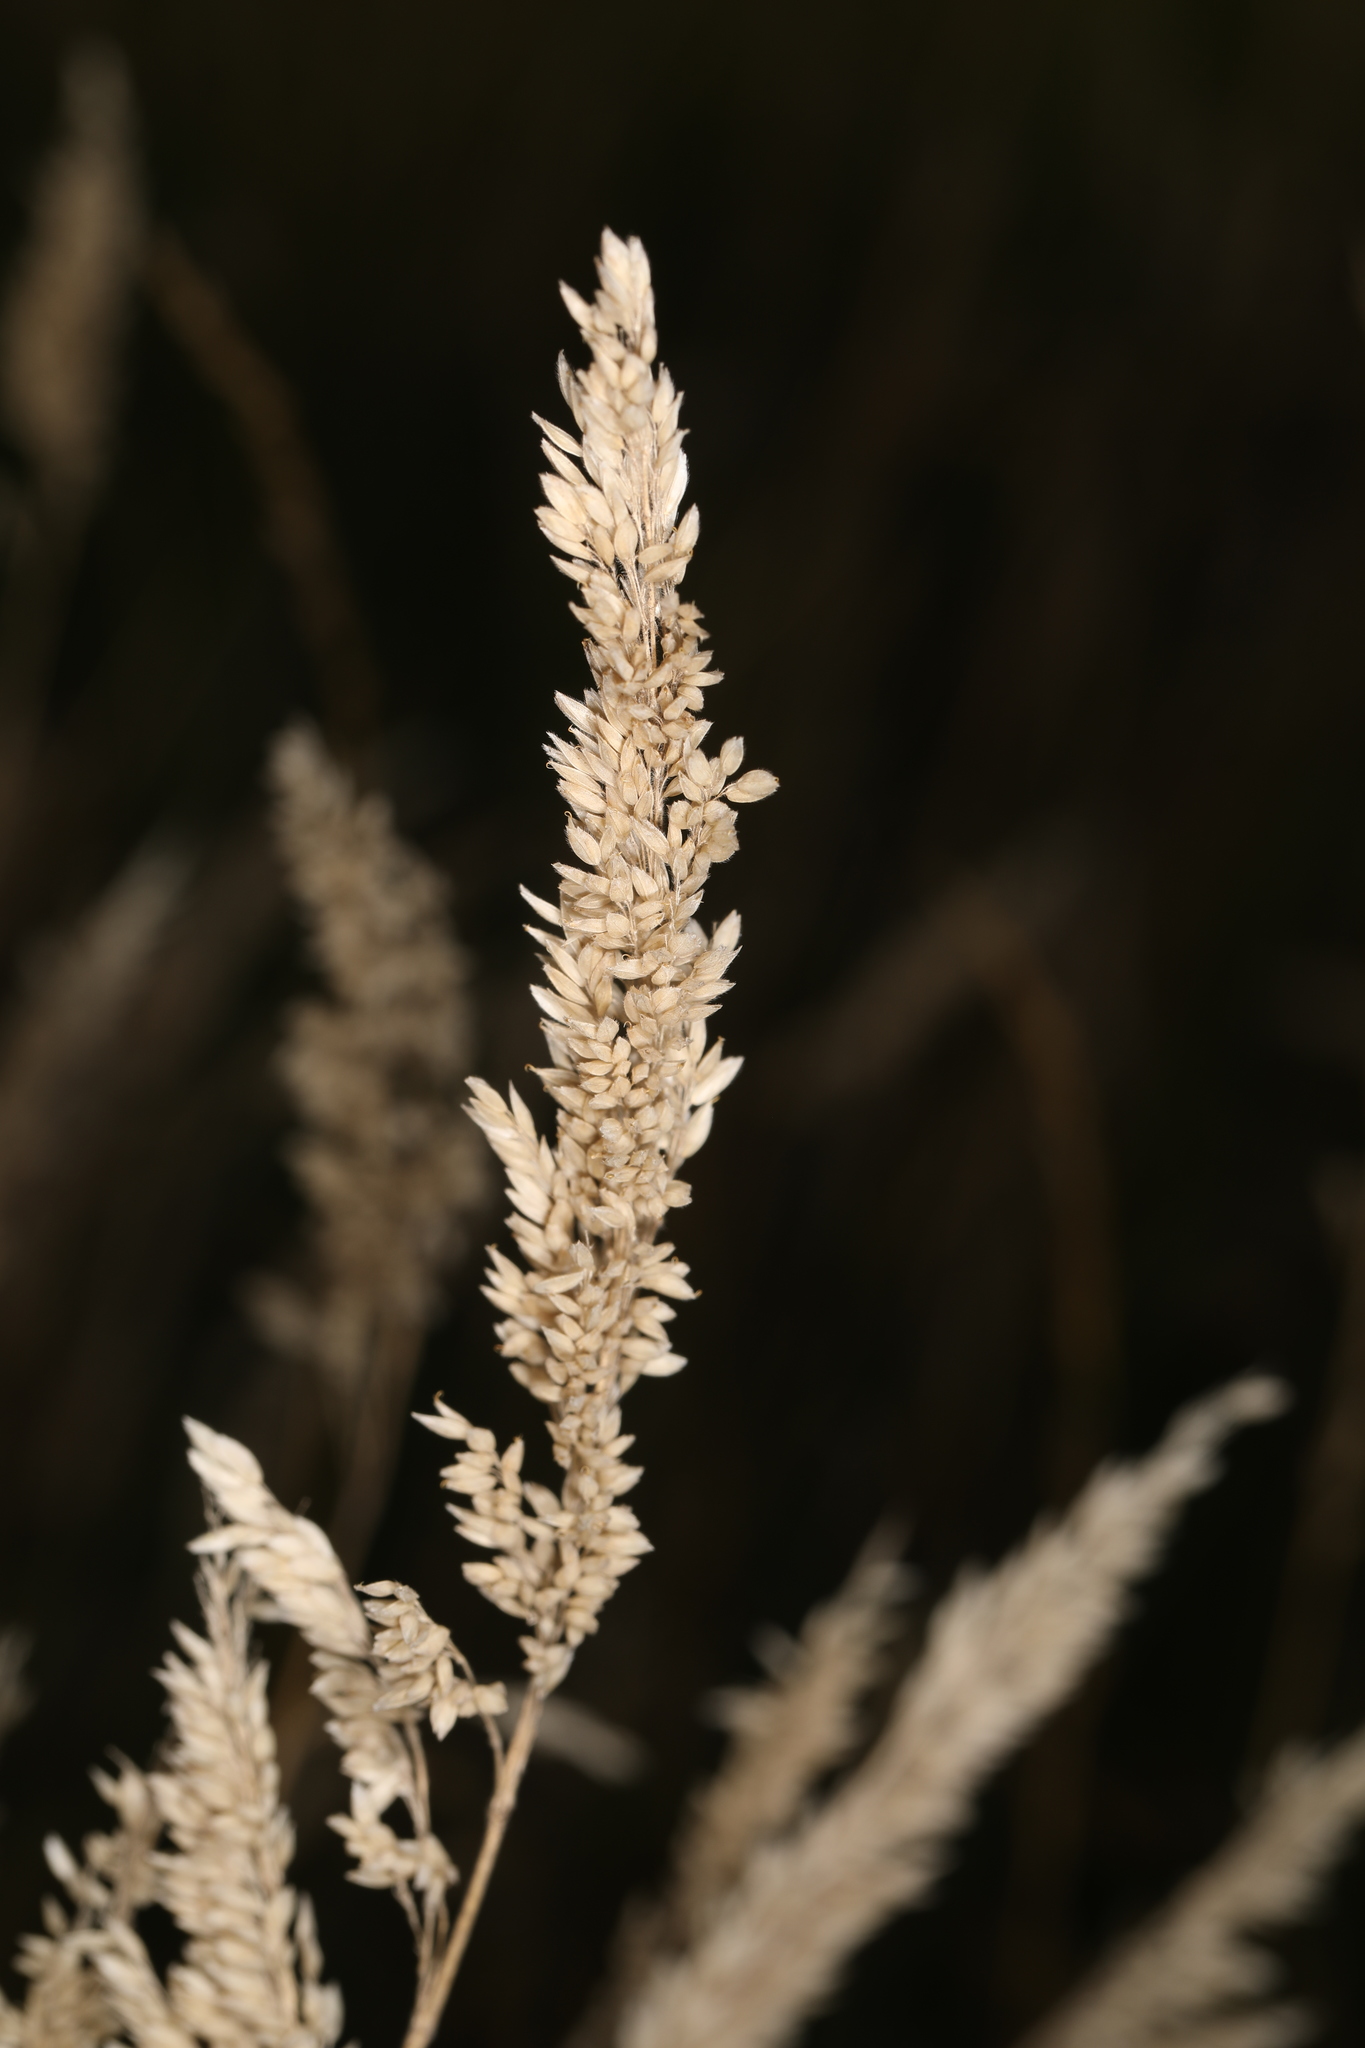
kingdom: Plantae
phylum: Tracheophyta
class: Liliopsida
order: Poales
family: Poaceae
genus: Holcus
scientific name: Holcus lanatus
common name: Yorkshire-fog
